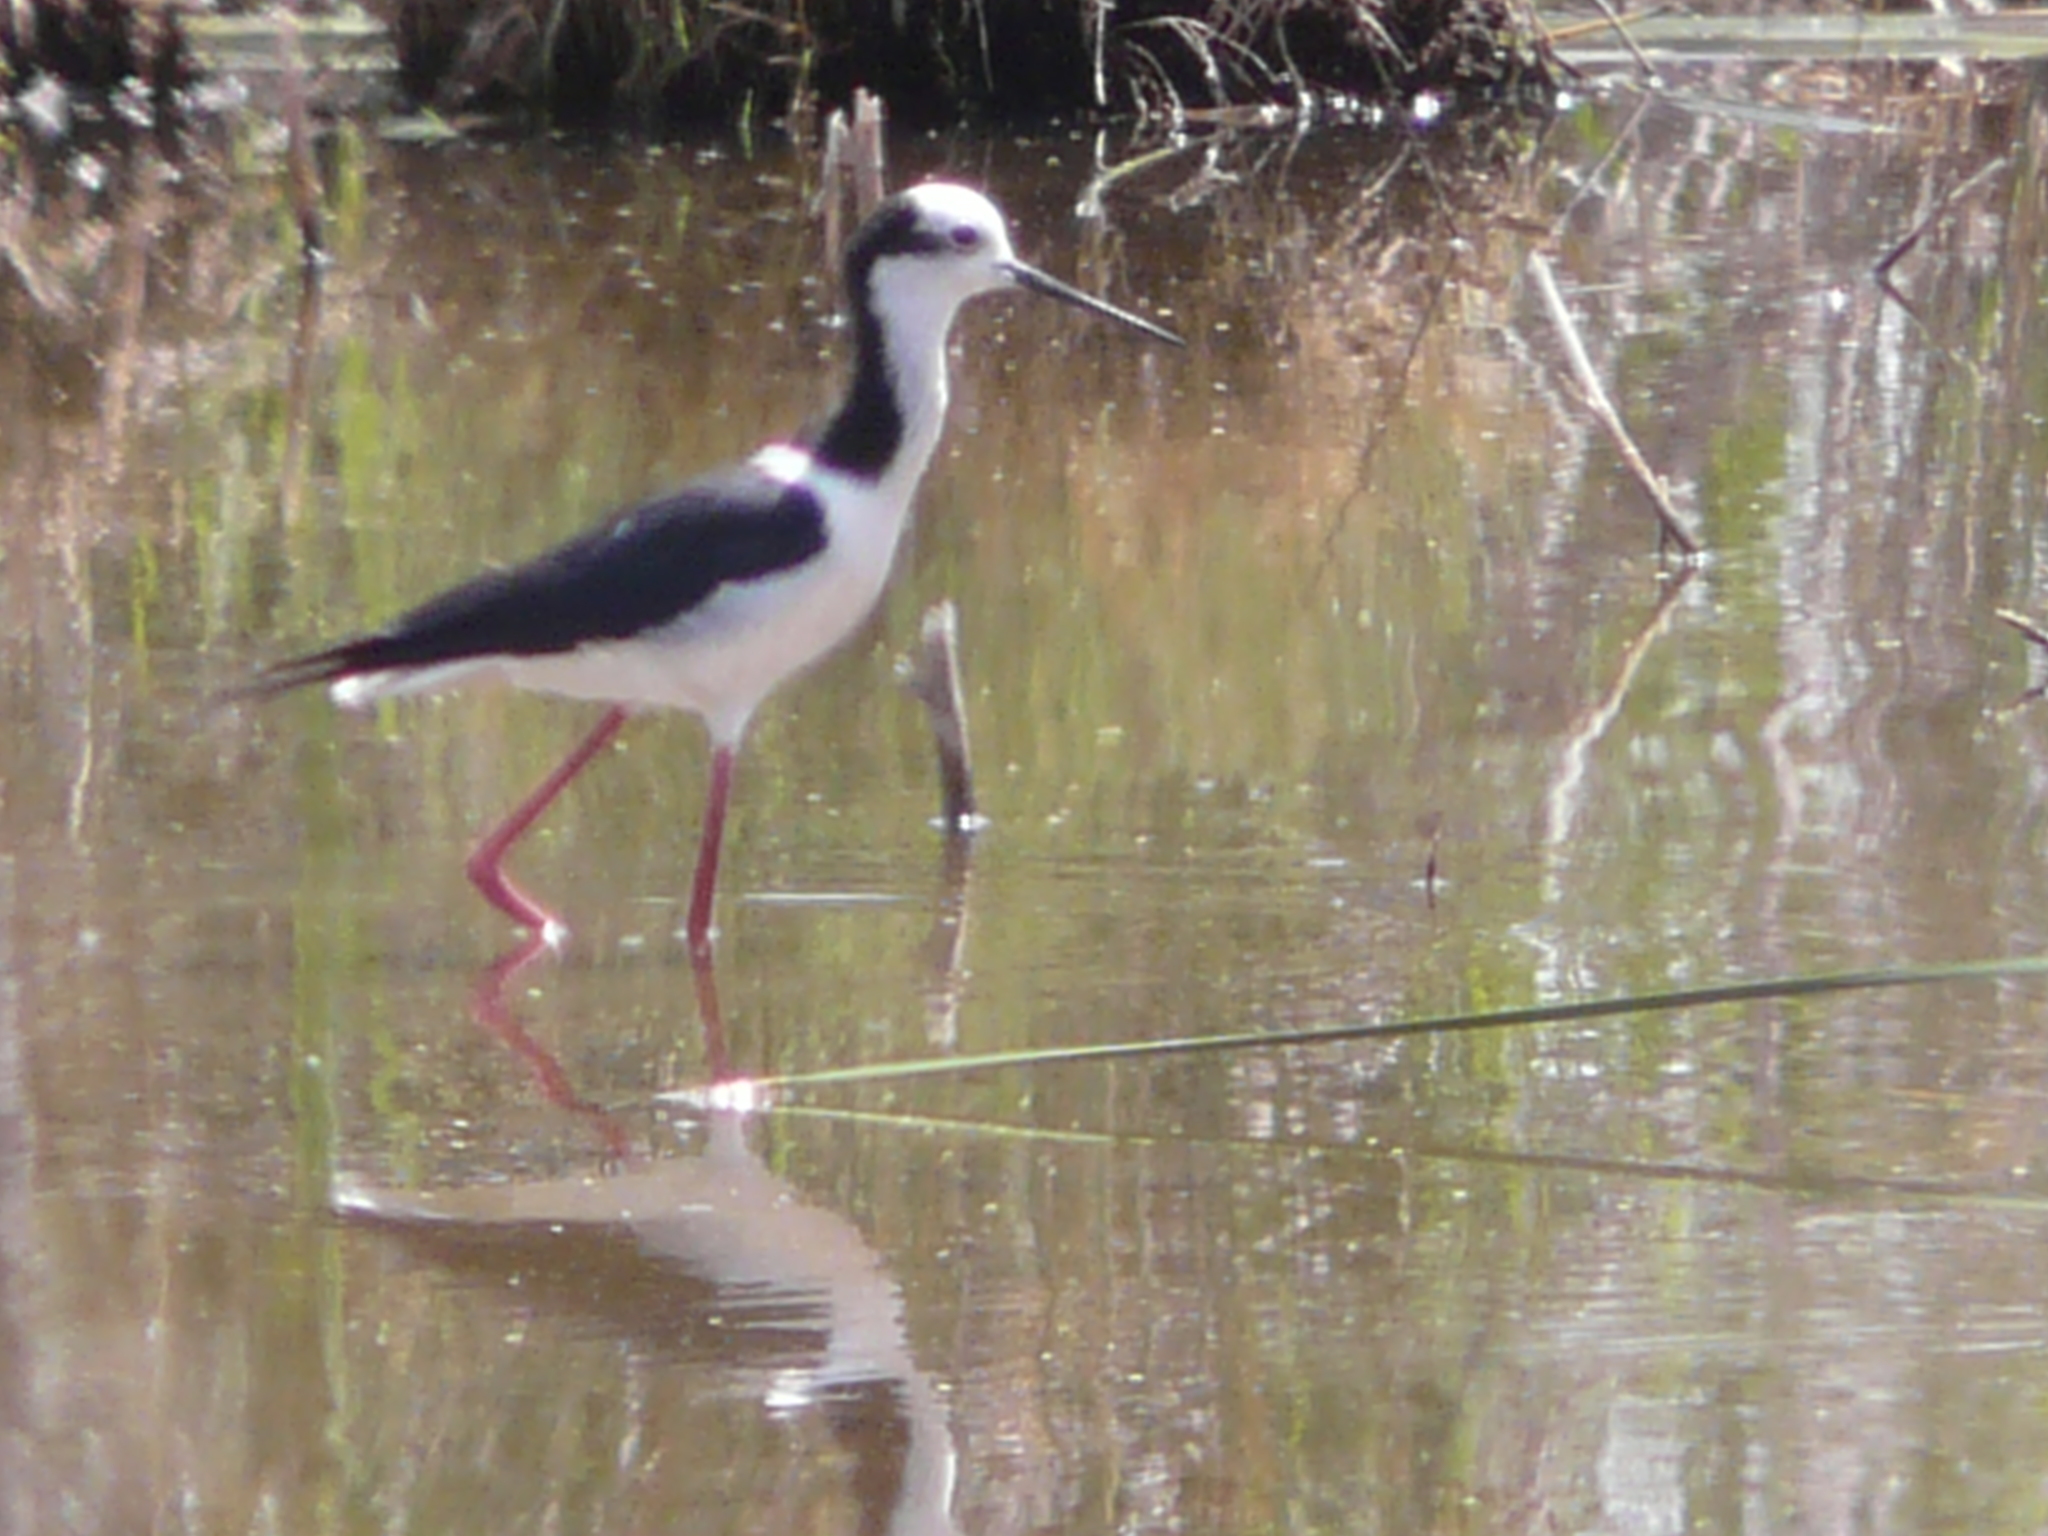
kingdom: Animalia
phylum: Chordata
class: Aves
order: Charadriiformes
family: Recurvirostridae
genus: Himantopus
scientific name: Himantopus mexicanus
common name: Black-necked stilt
